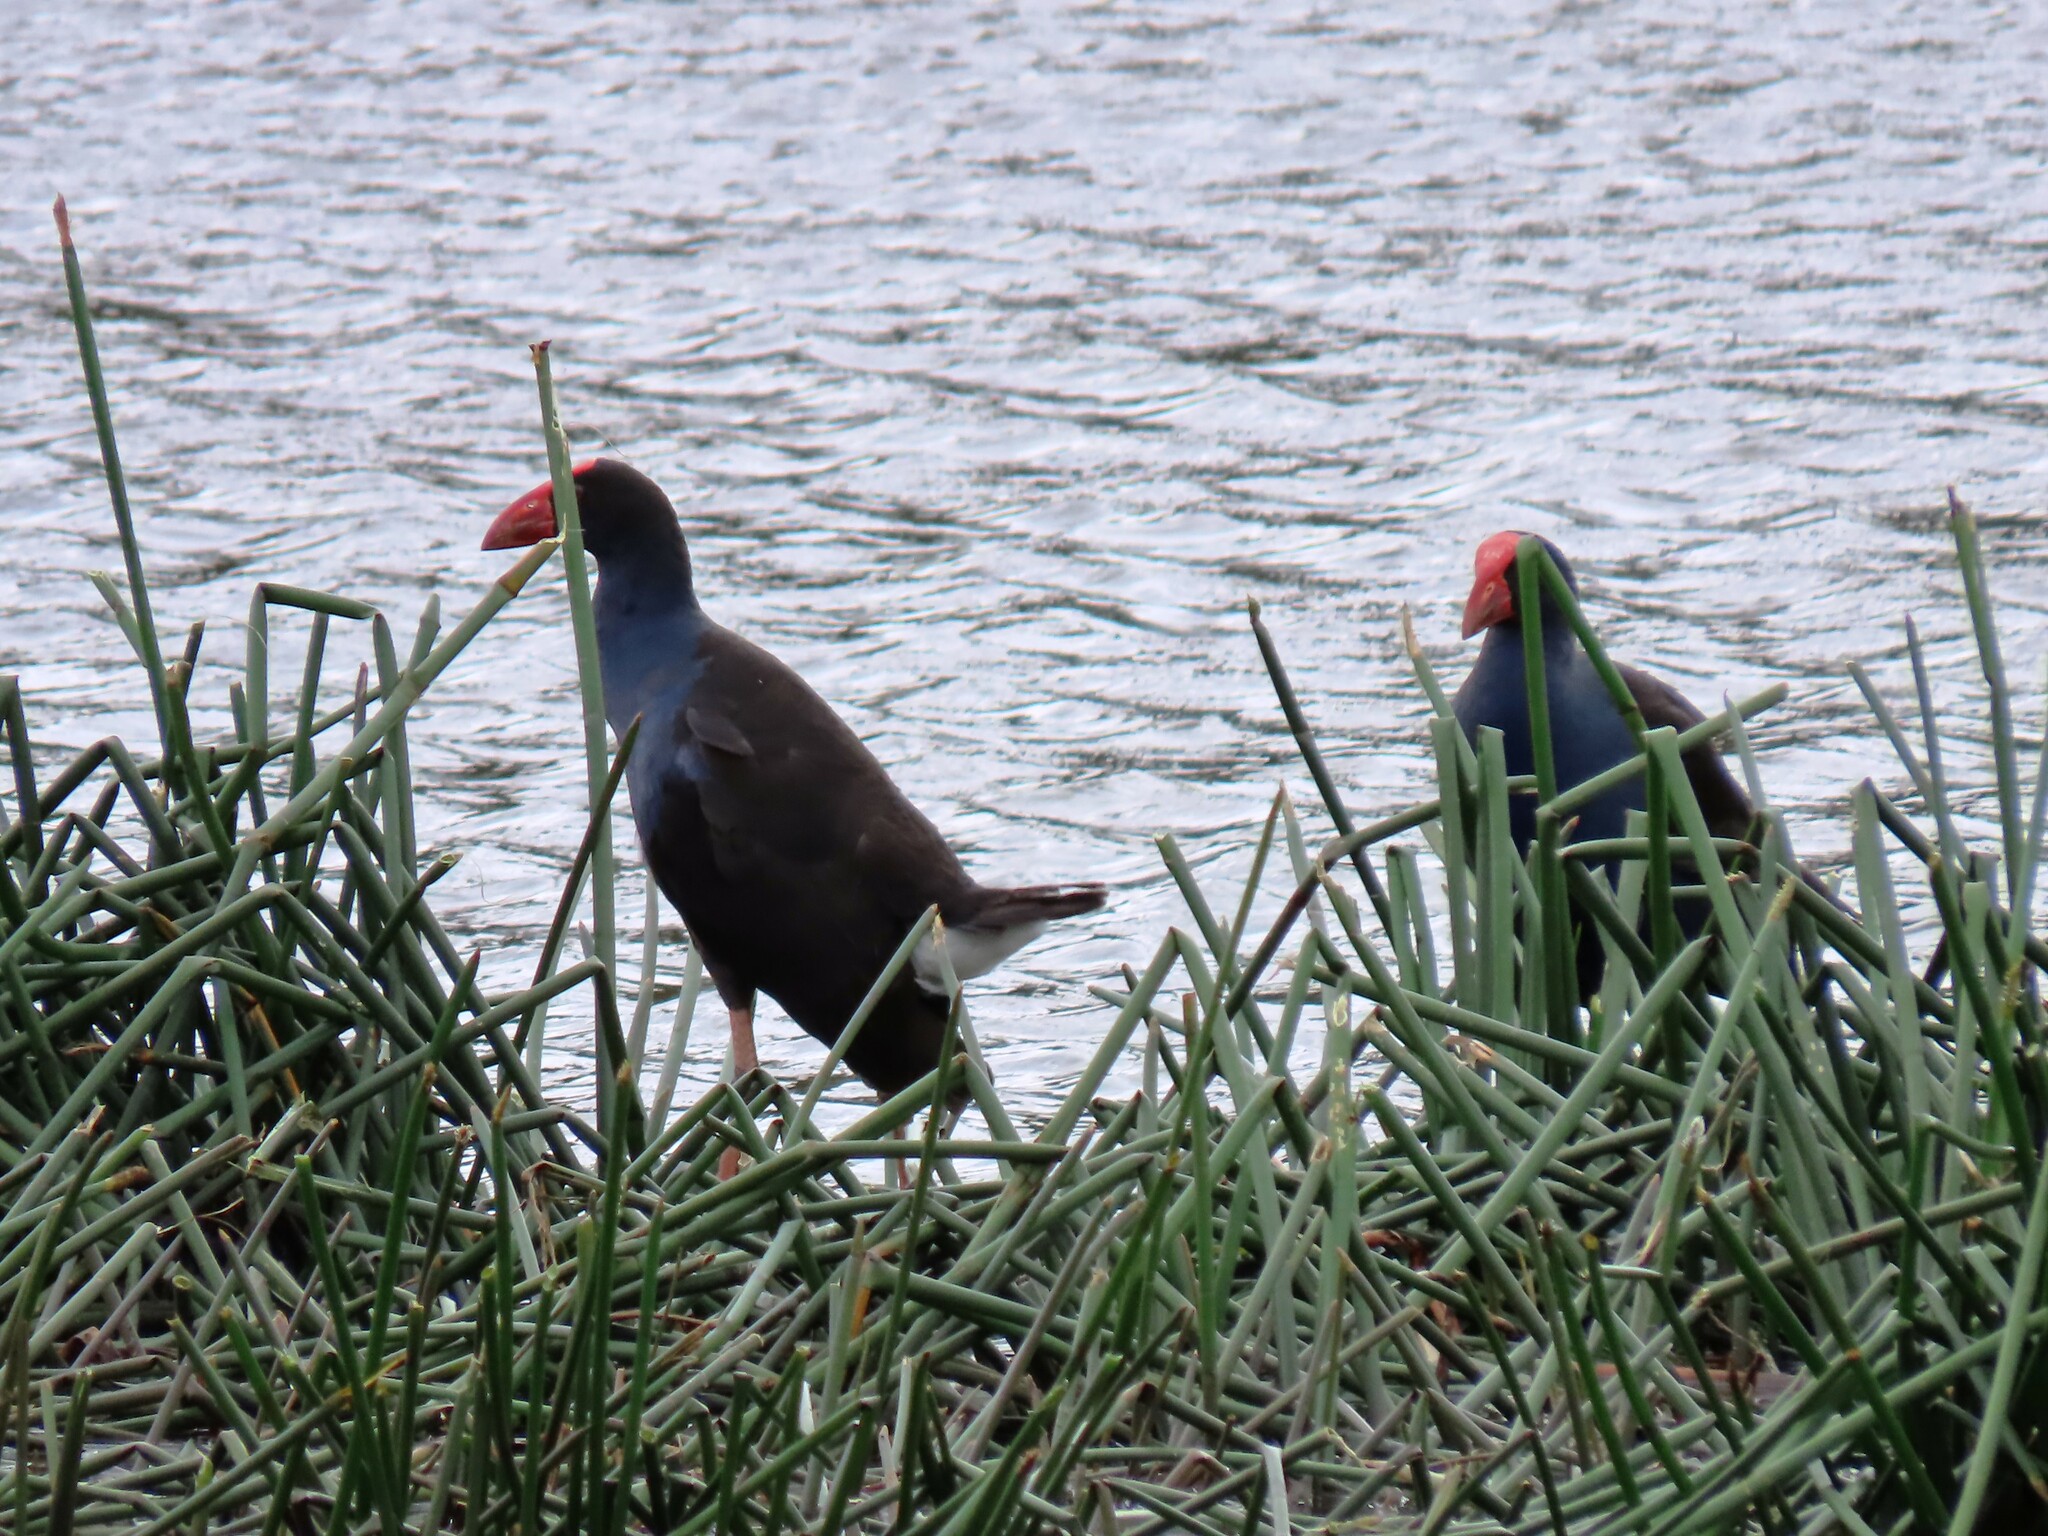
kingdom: Animalia
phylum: Chordata
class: Aves
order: Gruiformes
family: Rallidae
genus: Porphyrio
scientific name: Porphyrio melanotus
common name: Australasian swamphen
